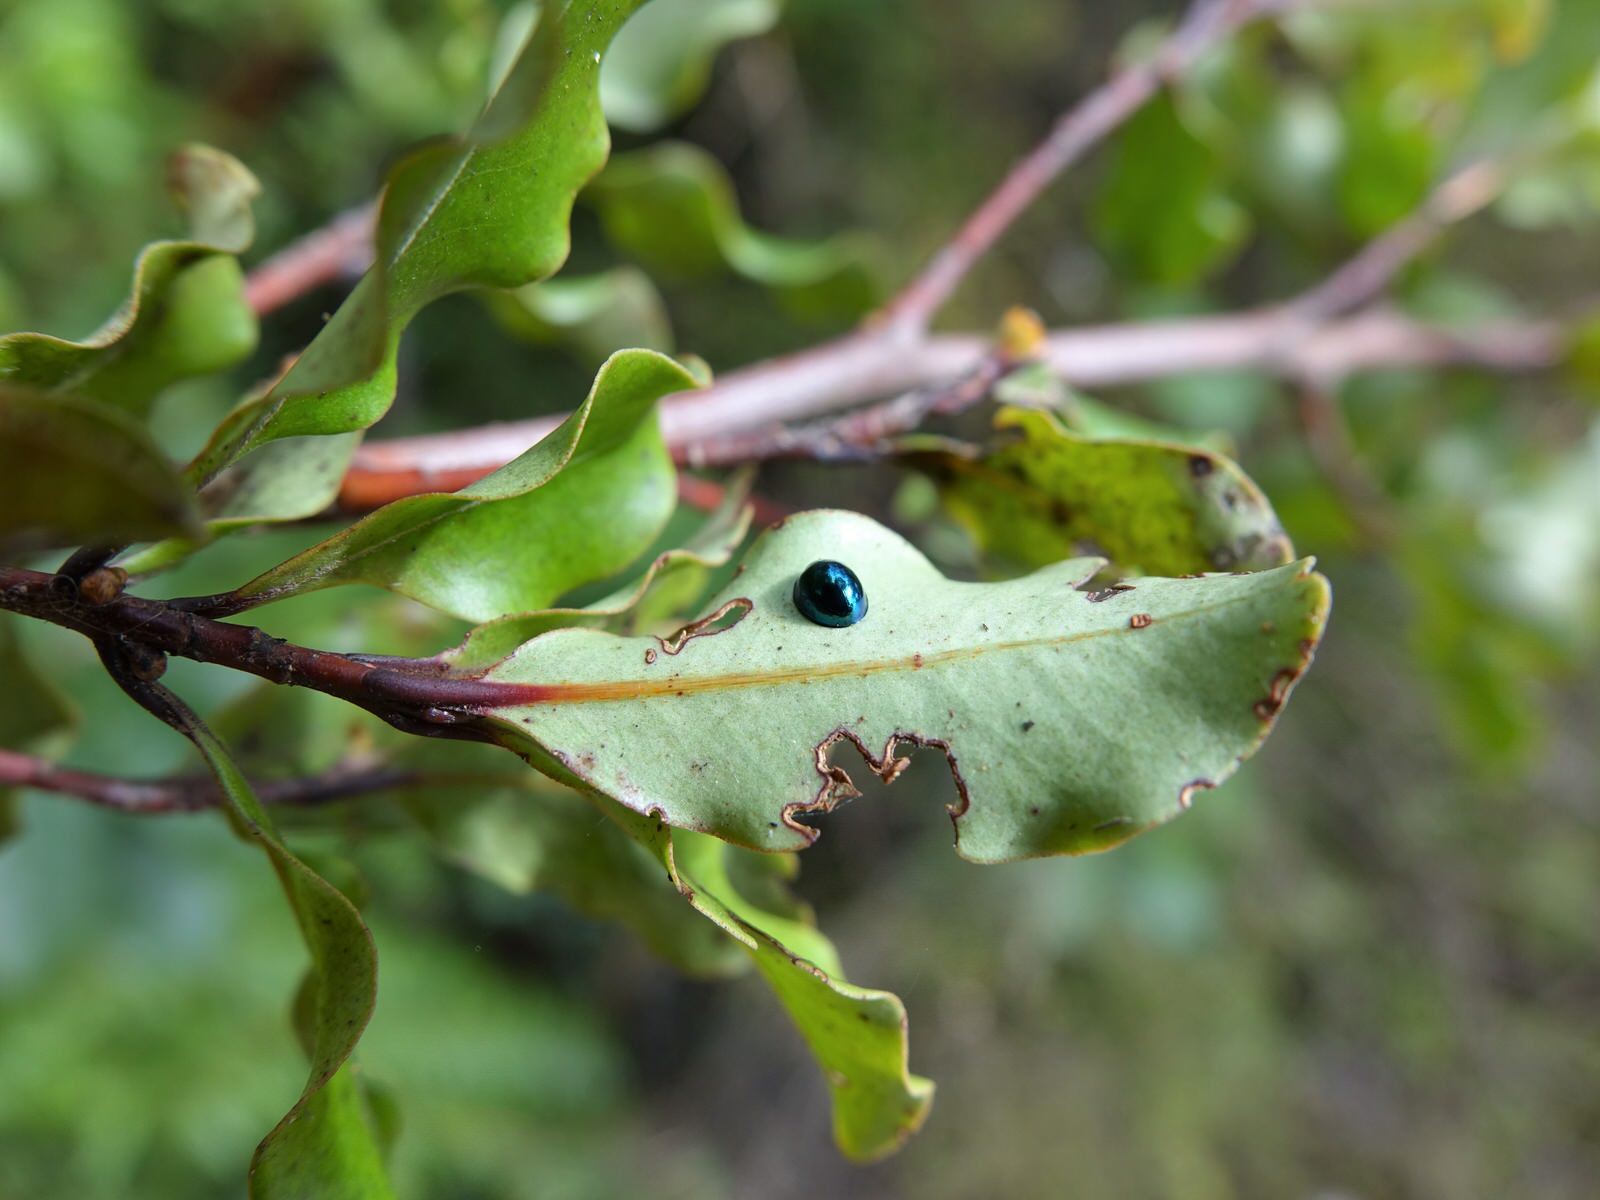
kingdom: Animalia
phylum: Arthropoda
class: Insecta
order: Coleoptera
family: Coccinellidae
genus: Halmus
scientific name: Halmus chalybeus
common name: Steel blue ladybird beetle
